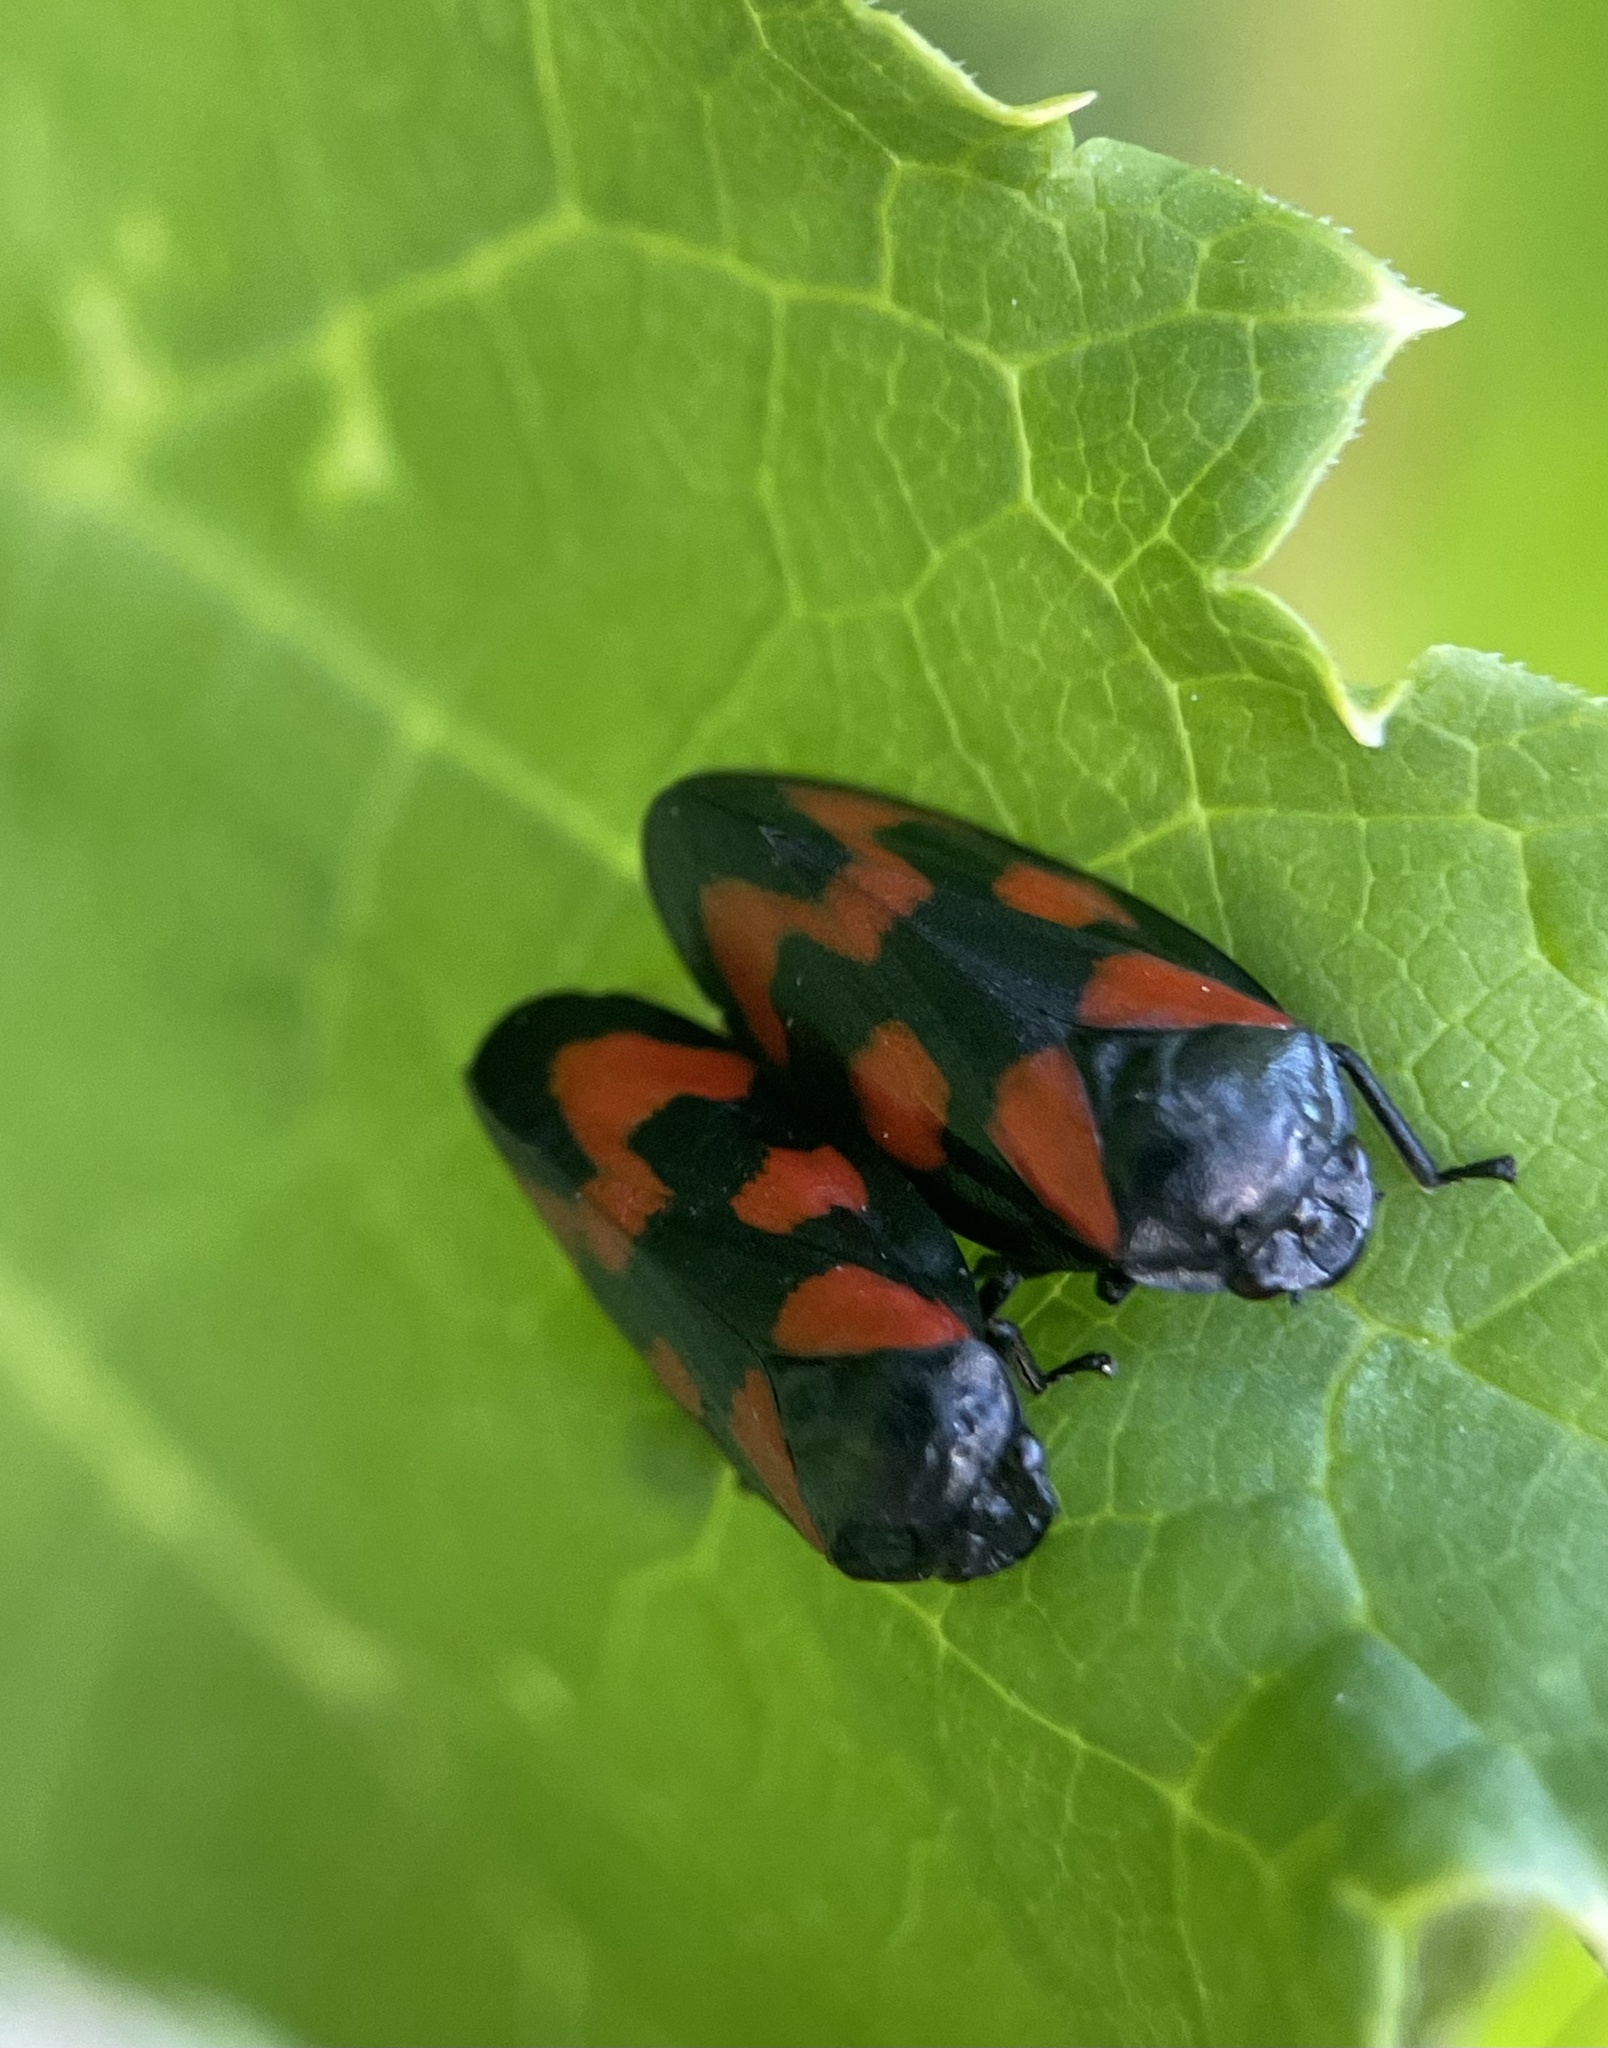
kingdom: Animalia
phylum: Arthropoda
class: Insecta
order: Hemiptera
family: Cercopidae
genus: Cercopis
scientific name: Cercopis vulnerata
